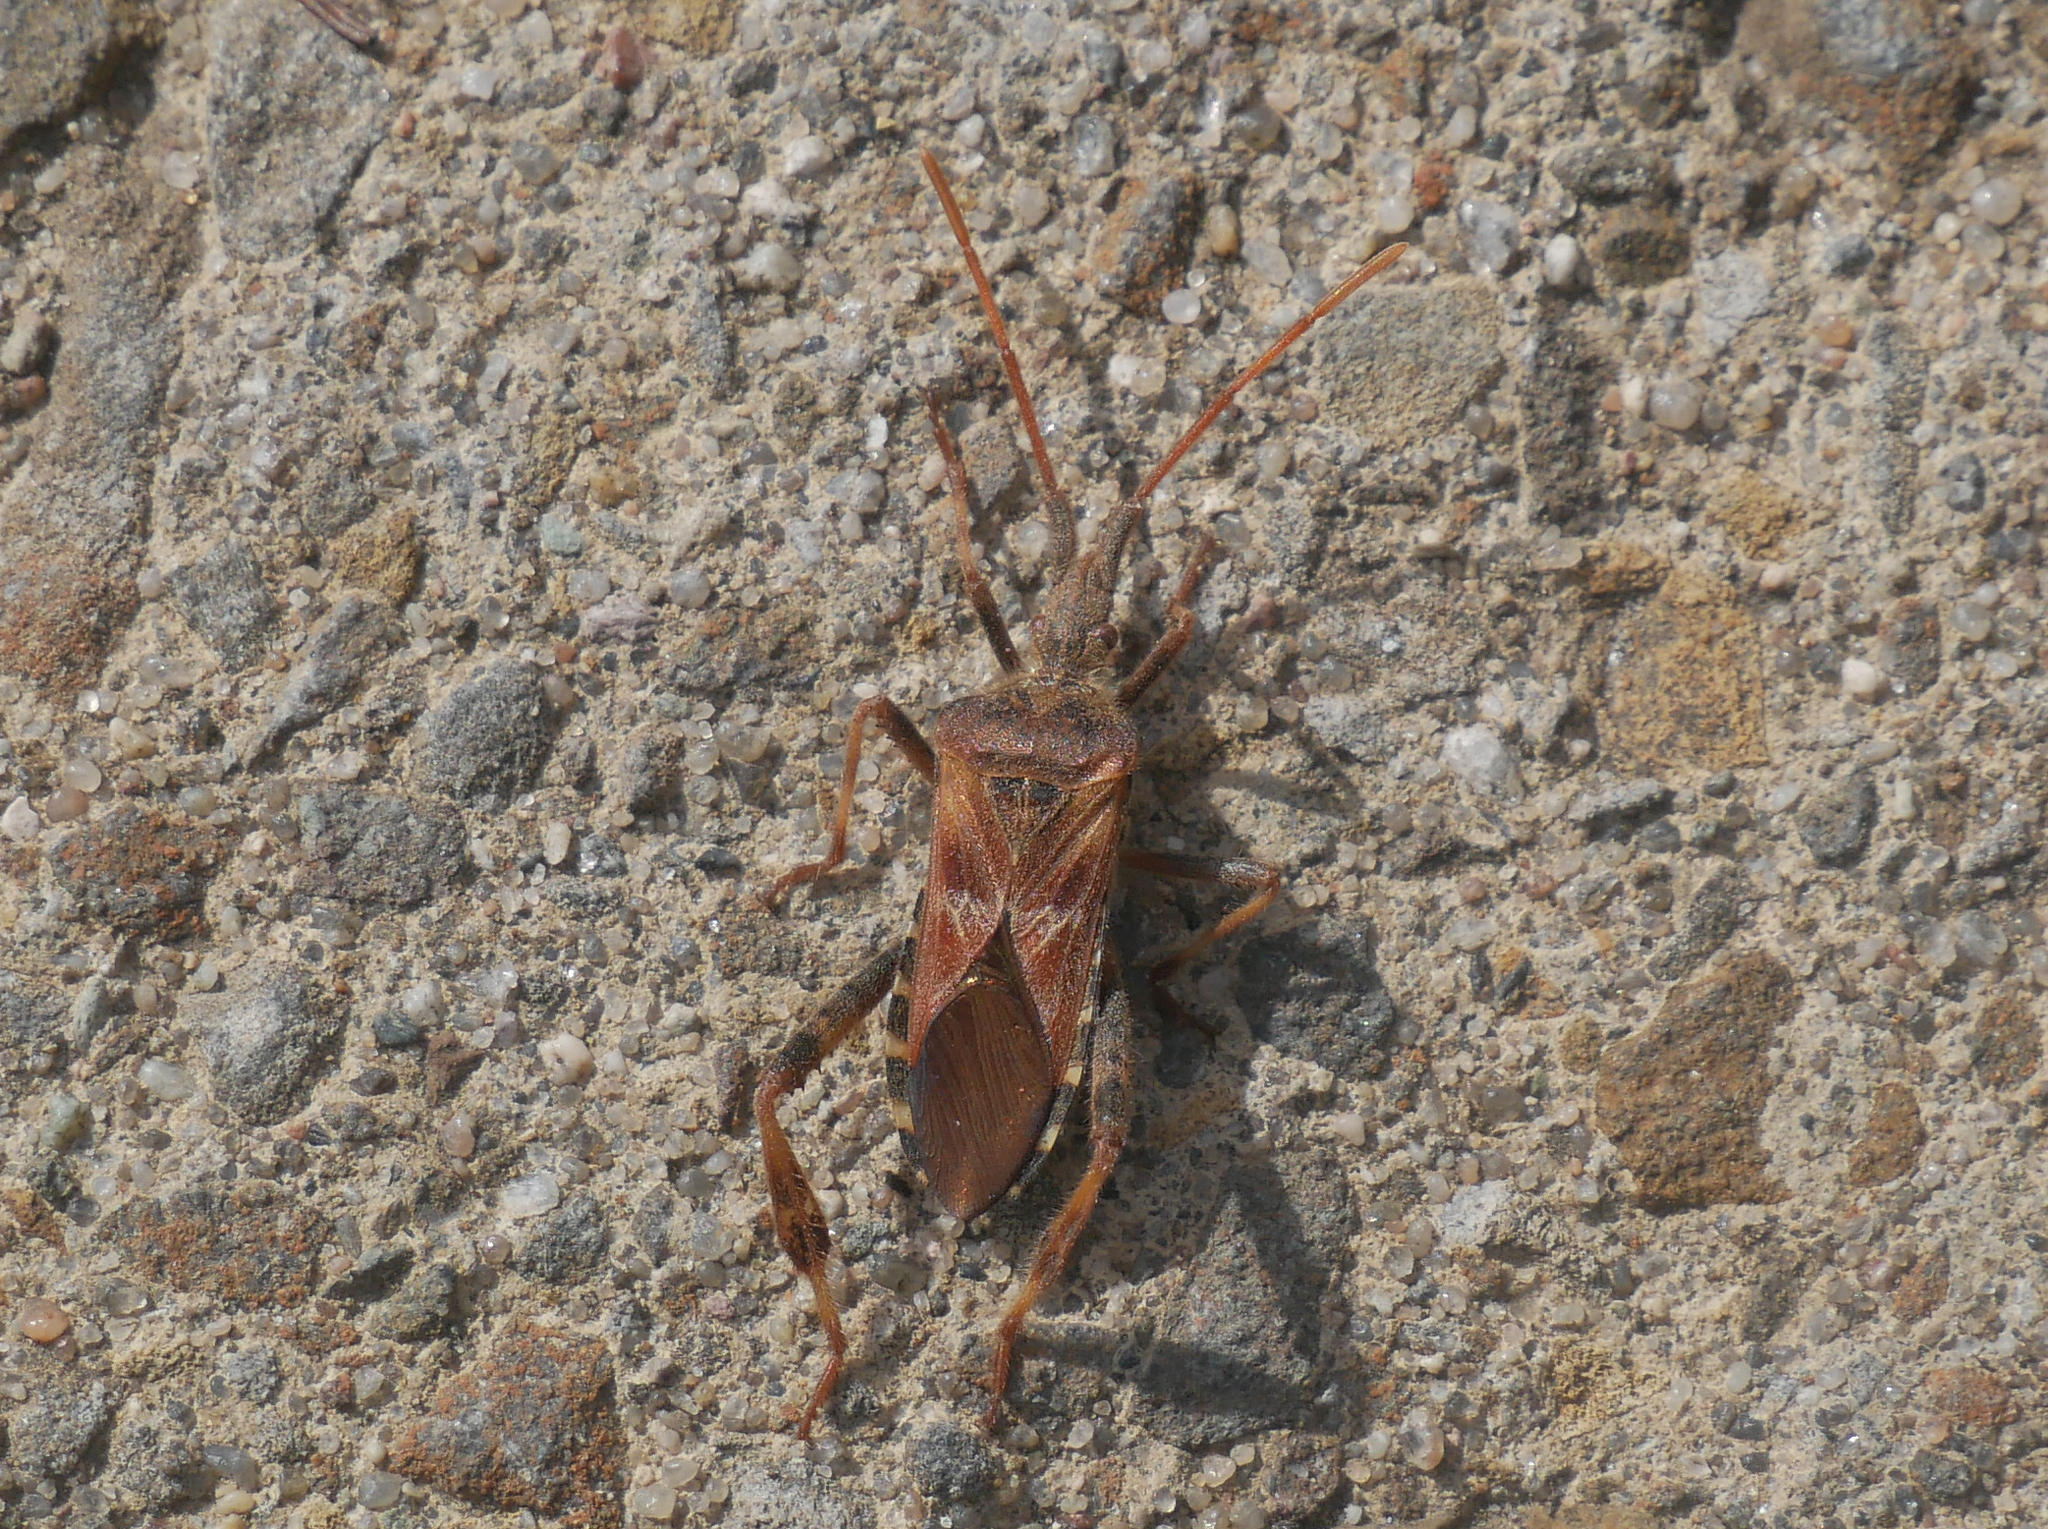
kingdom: Animalia
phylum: Arthropoda
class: Insecta
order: Hemiptera
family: Coreidae
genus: Leptoglossus
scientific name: Leptoglossus occidentalis
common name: Western conifer-seed bug
